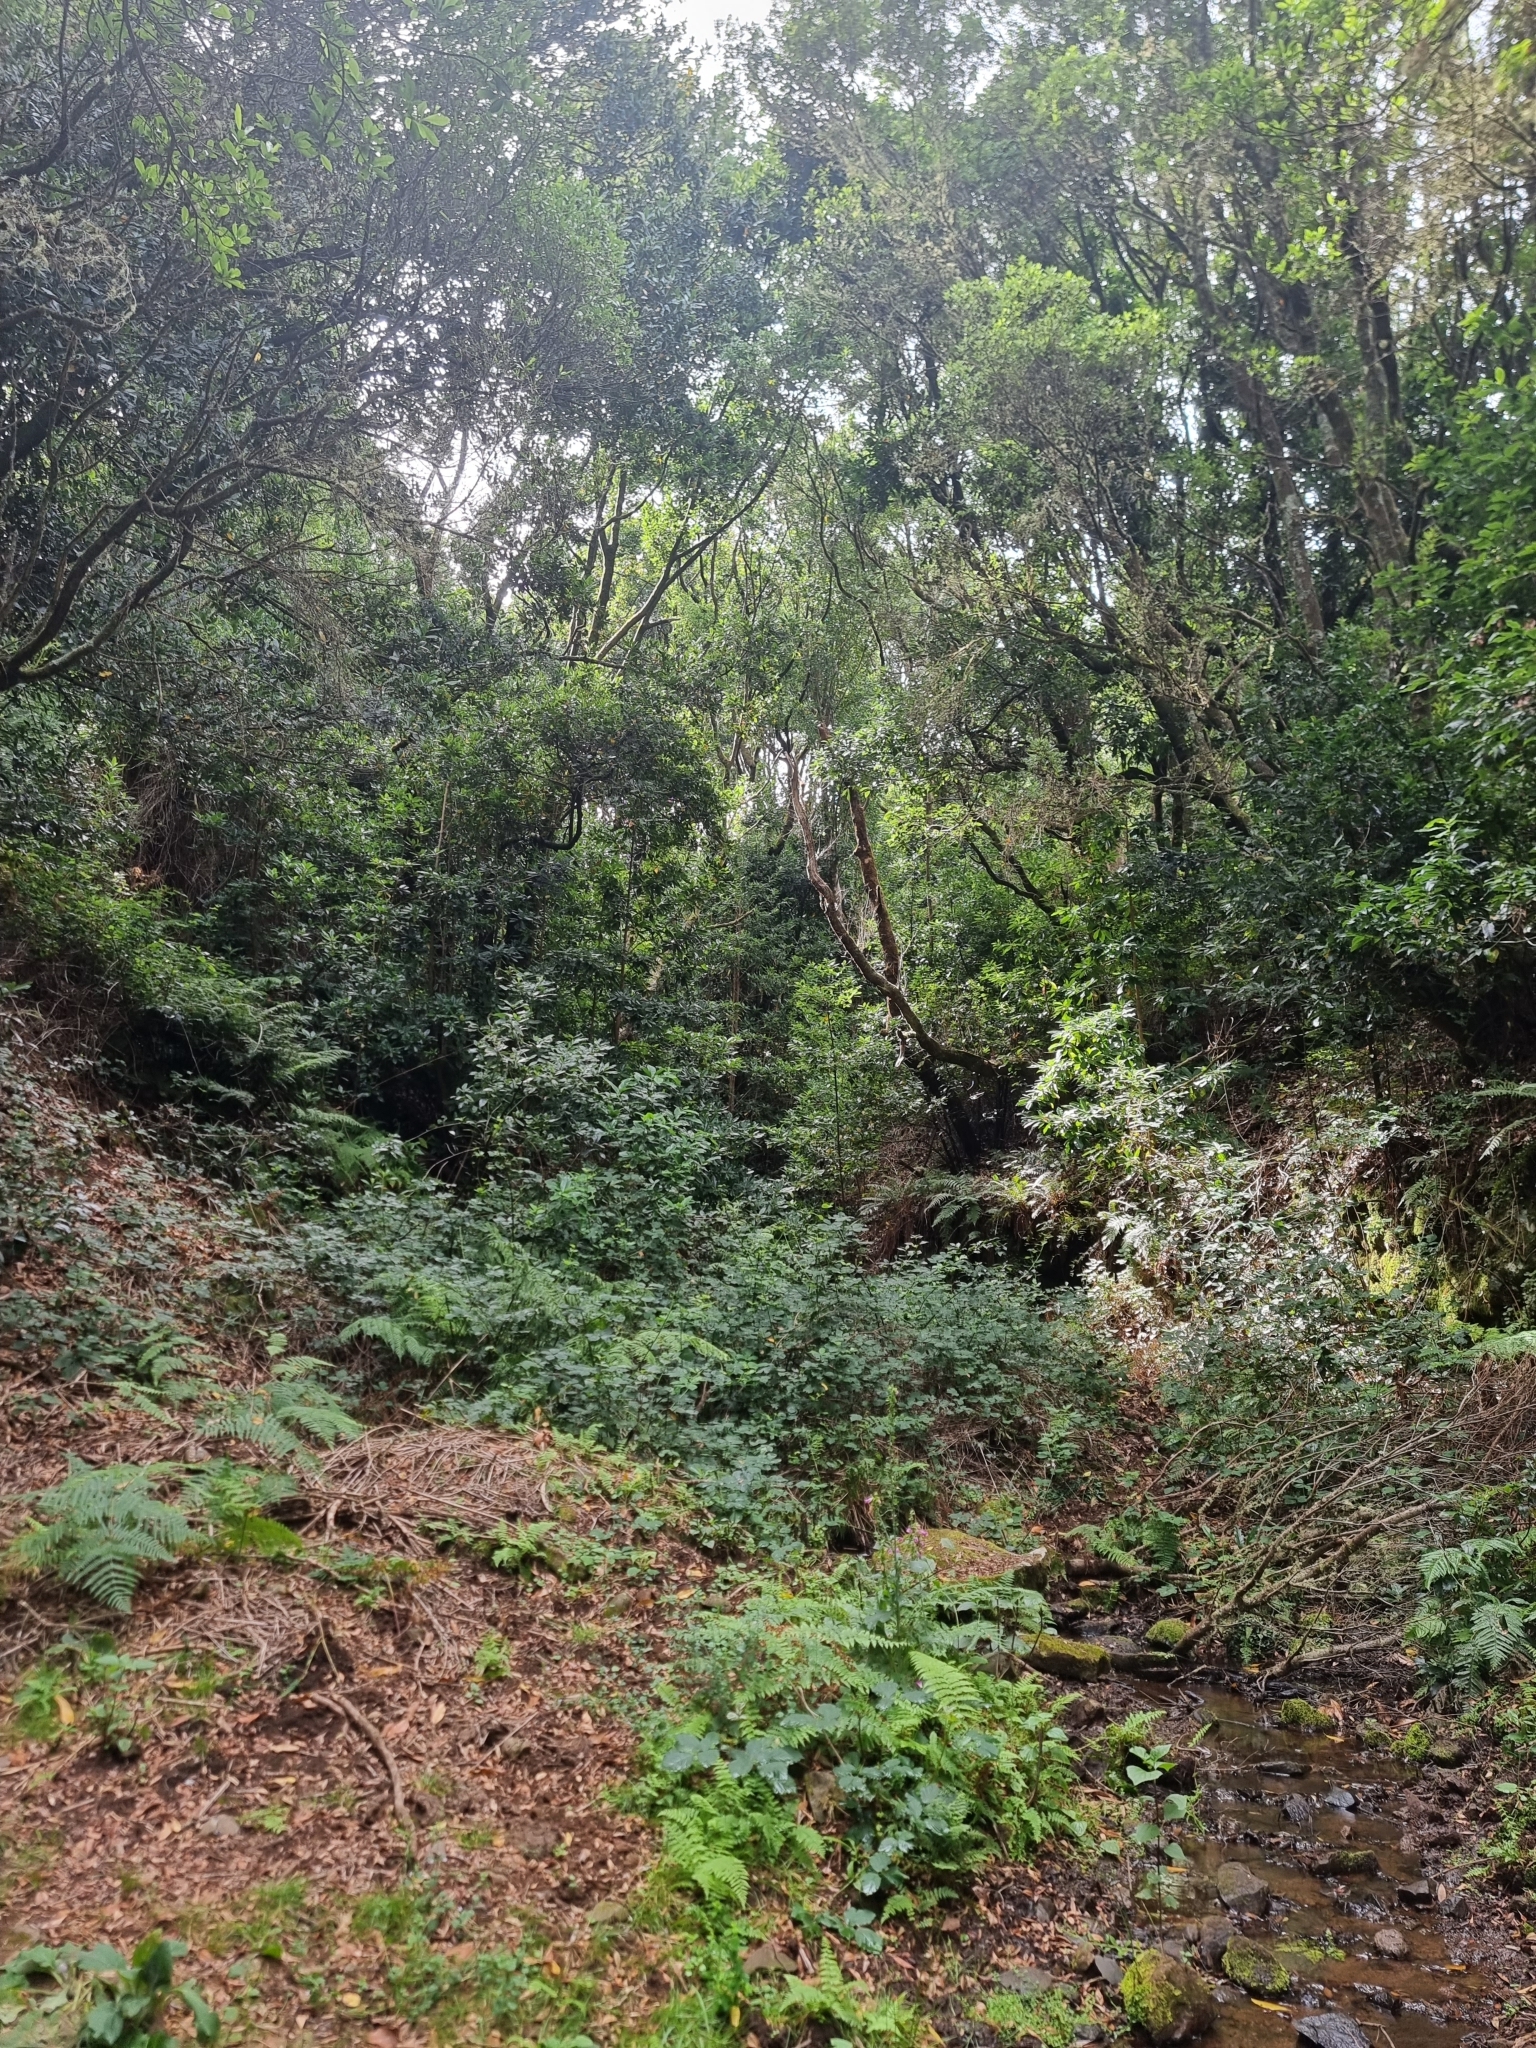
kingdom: Plantae
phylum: Tracheophyta
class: Magnoliopsida
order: Laurales
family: Lauraceae
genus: Persea
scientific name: Persea indica
